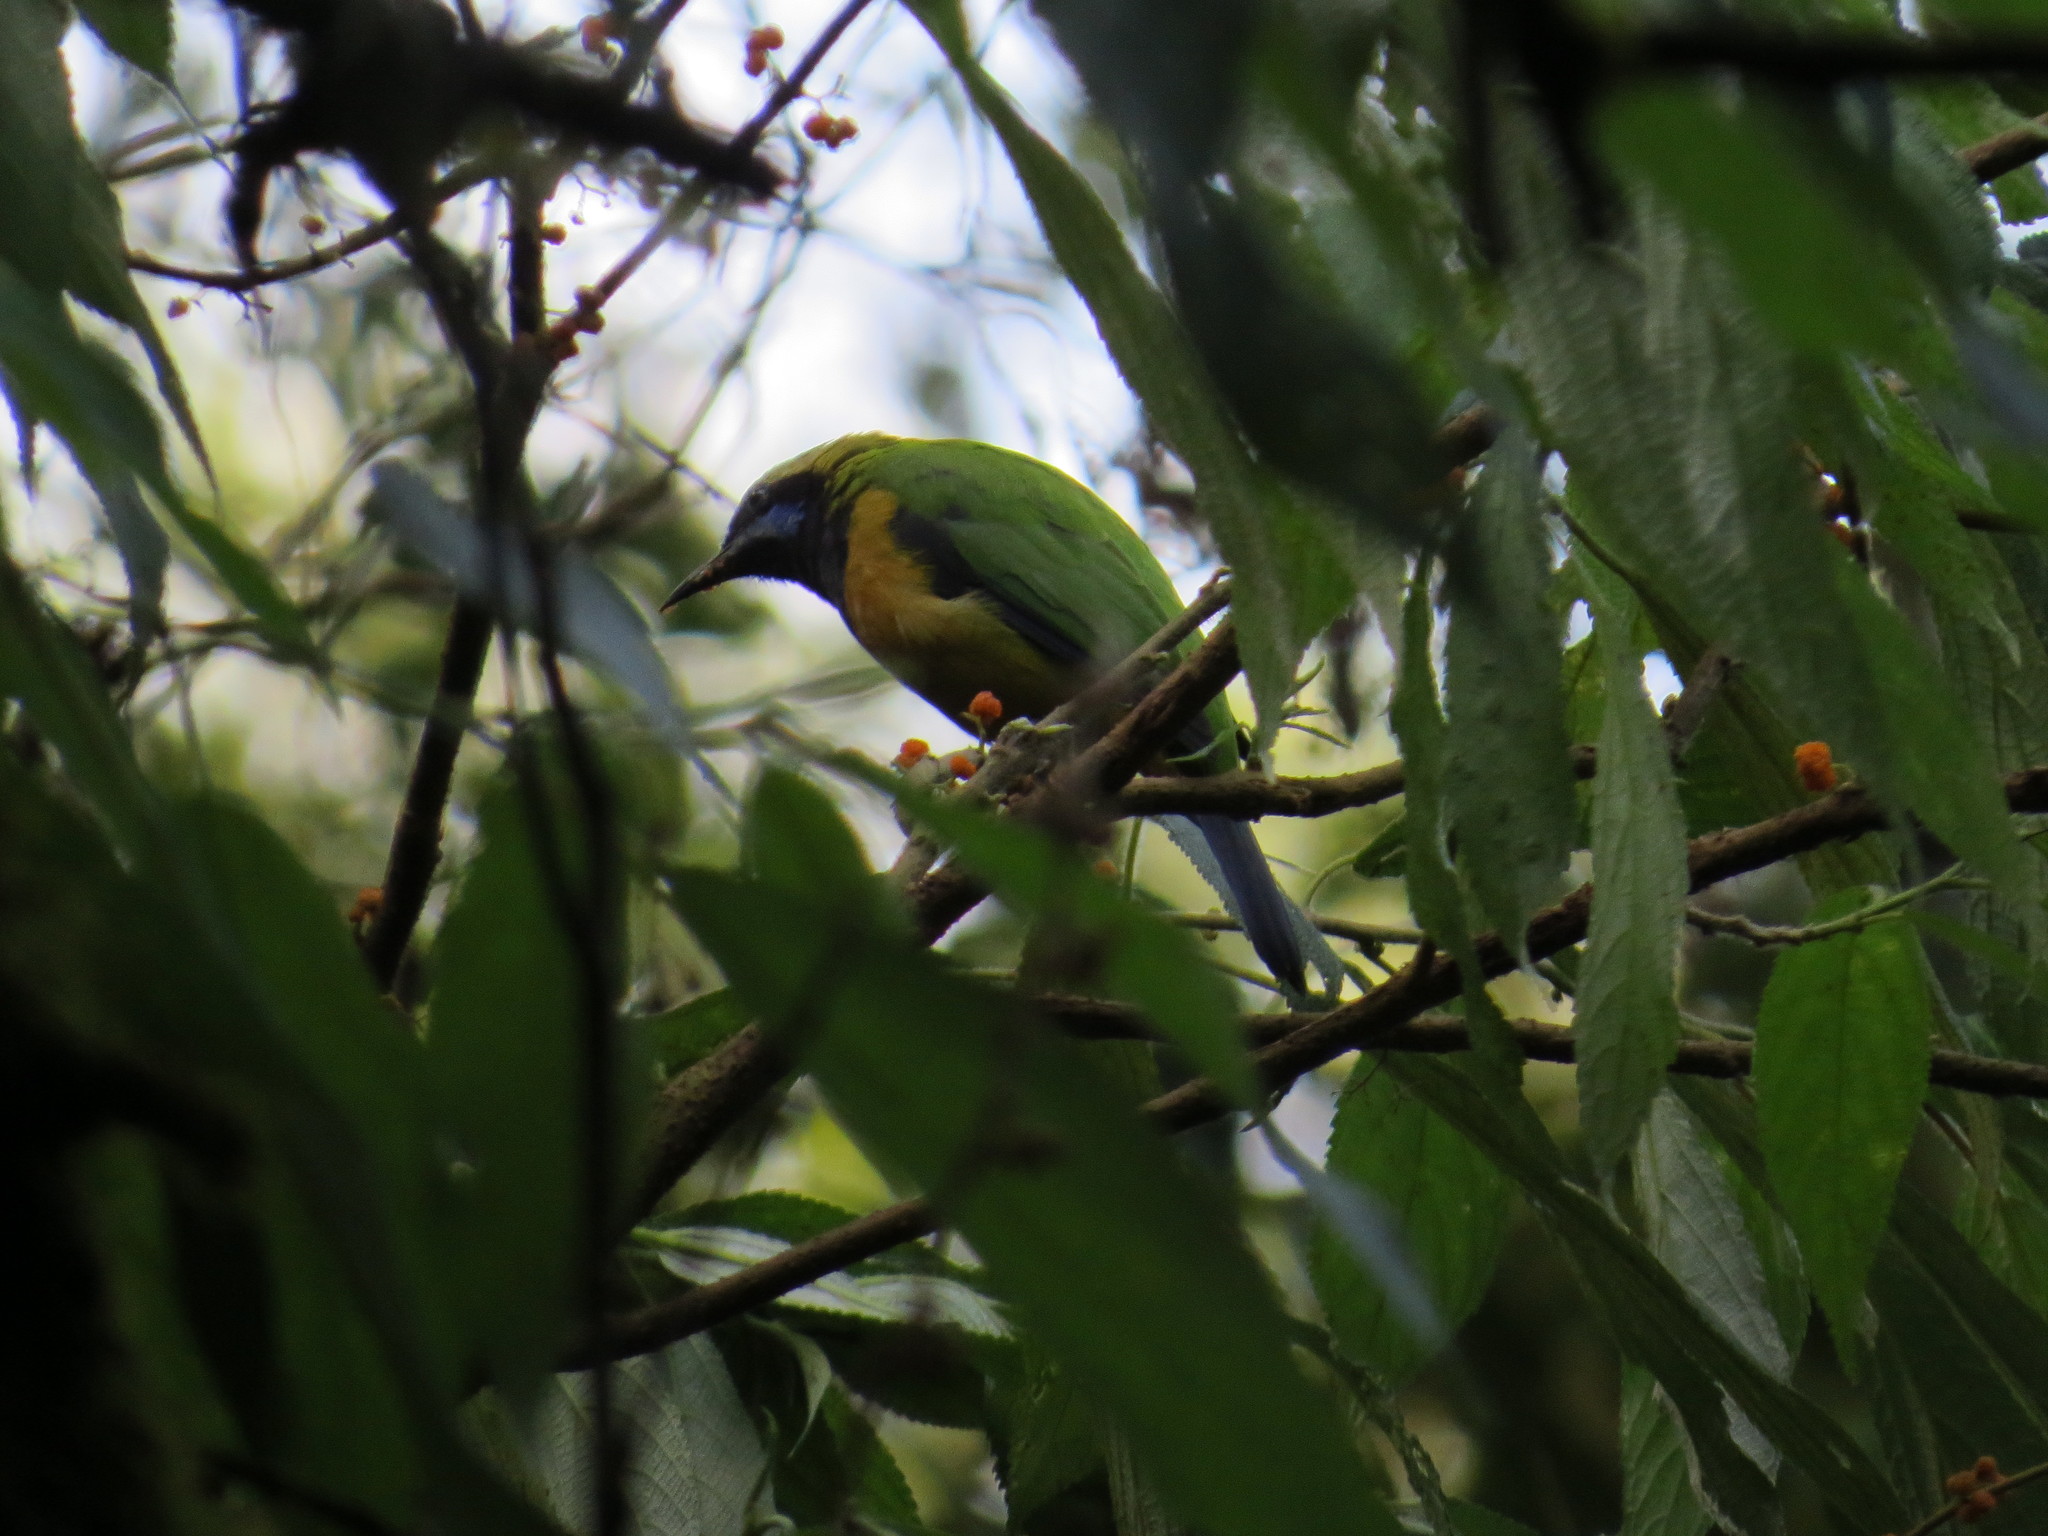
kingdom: Animalia
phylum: Chordata
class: Aves
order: Passeriformes
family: Chloropseidae
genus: Chloropsis
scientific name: Chloropsis hardwickii
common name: Orange-bellied leafbird
